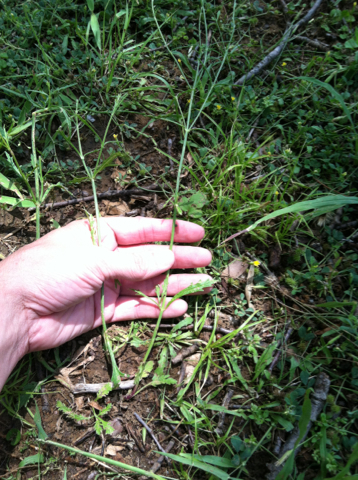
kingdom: Plantae
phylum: Tracheophyta
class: Magnoliopsida
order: Lamiales
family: Verbenaceae
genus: Verbena
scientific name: Verbena halei
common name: Texas vervain
